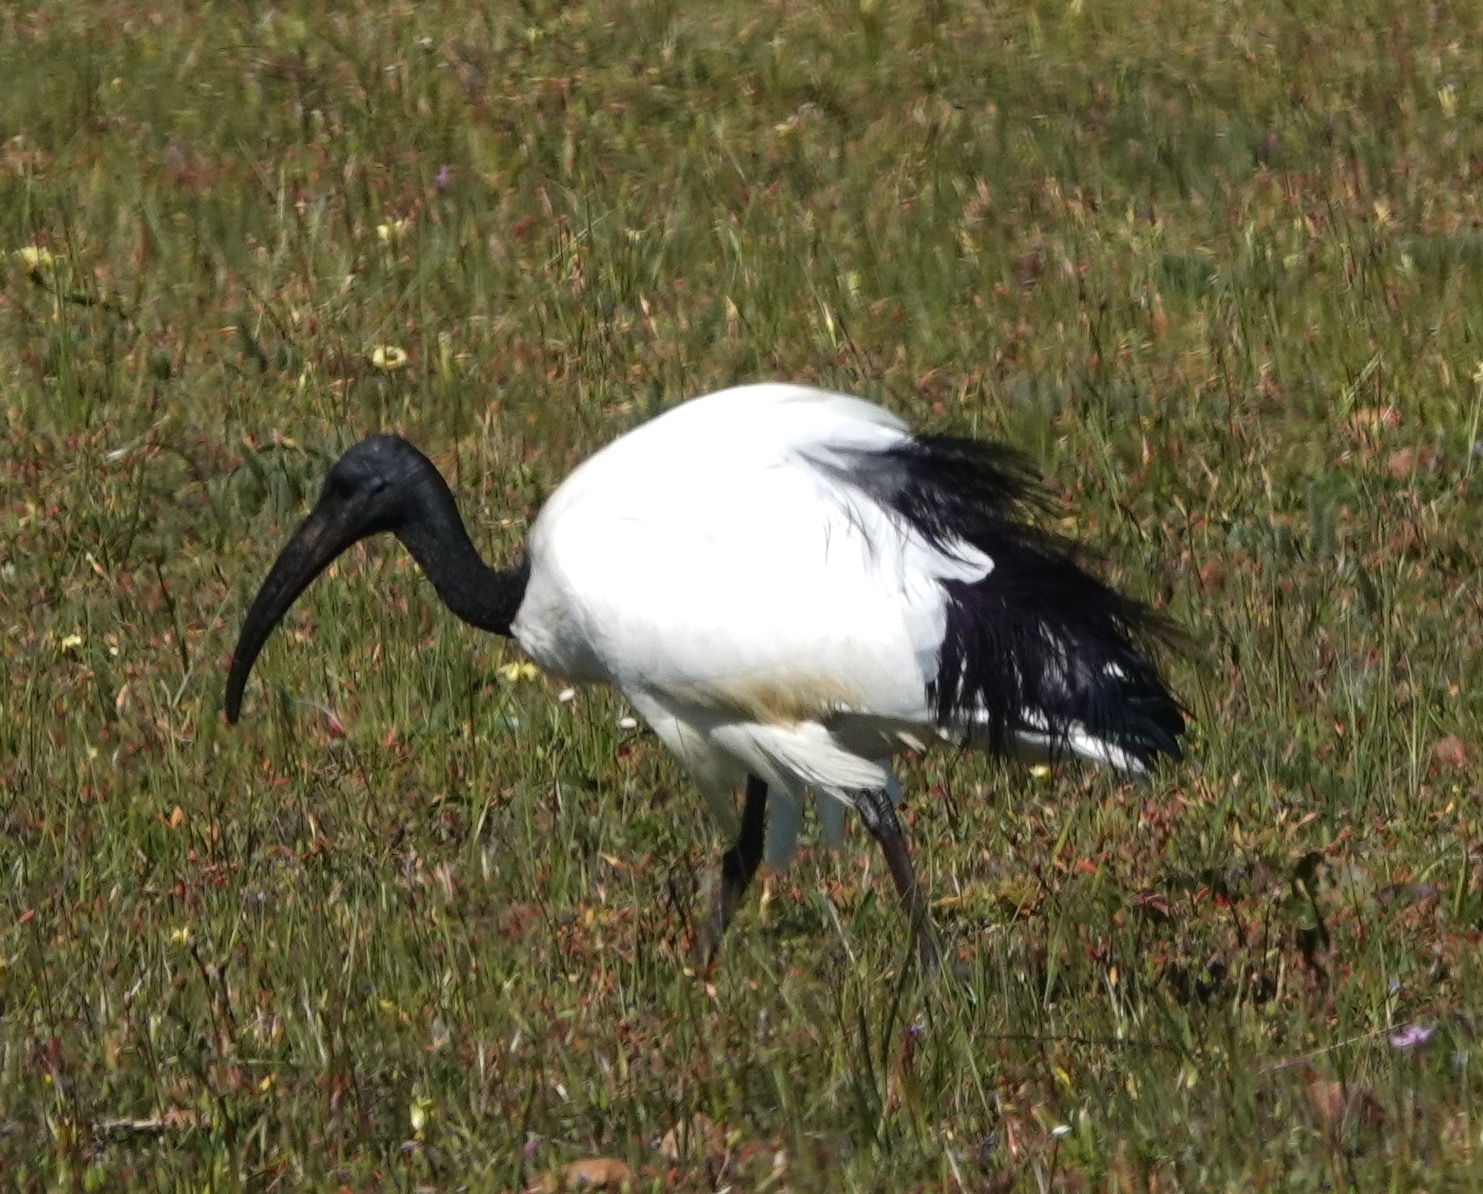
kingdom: Animalia
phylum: Chordata
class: Aves
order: Pelecaniformes
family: Threskiornithidae
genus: Threskiornis
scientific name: Threskiornis aethiopicus
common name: Sacred ibis
